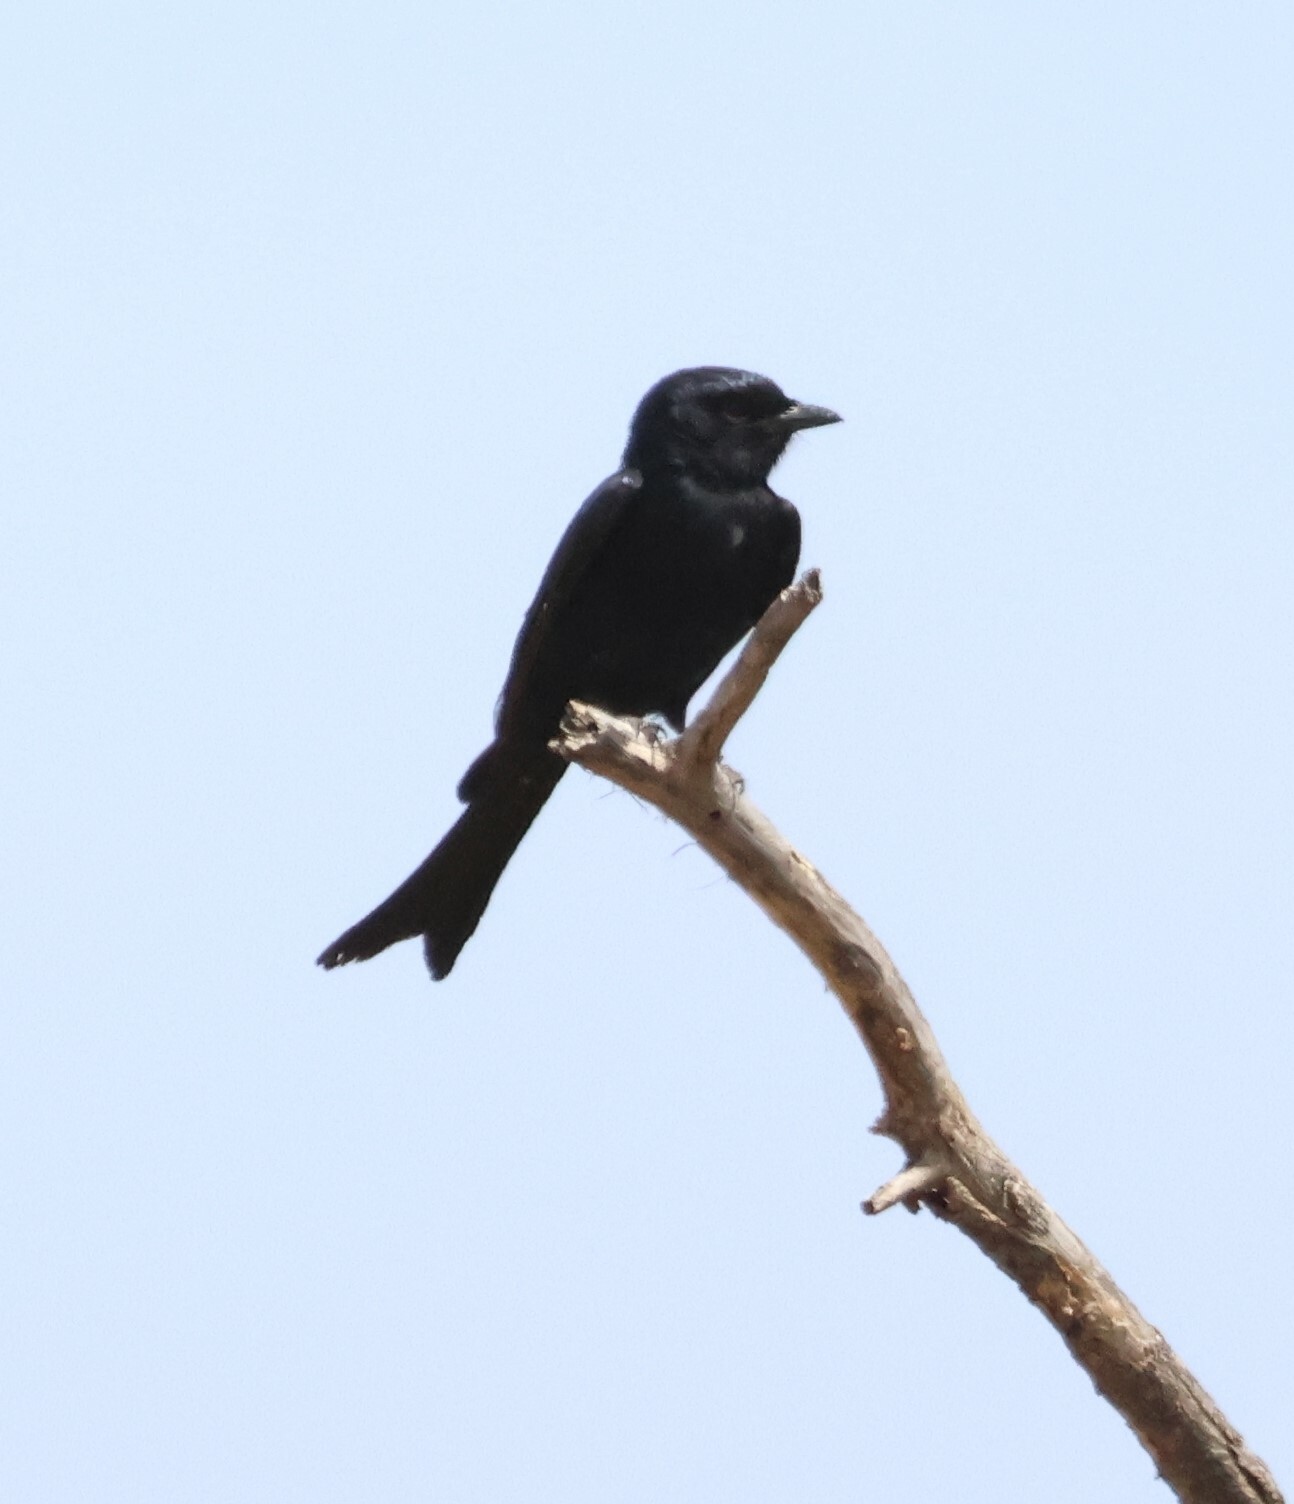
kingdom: Animalia
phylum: Chordata
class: Aves
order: Passeriformes
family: Dicruridae
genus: Dicrurus
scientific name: Dicrurus adsimilis
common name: Fork-tailed drongo
